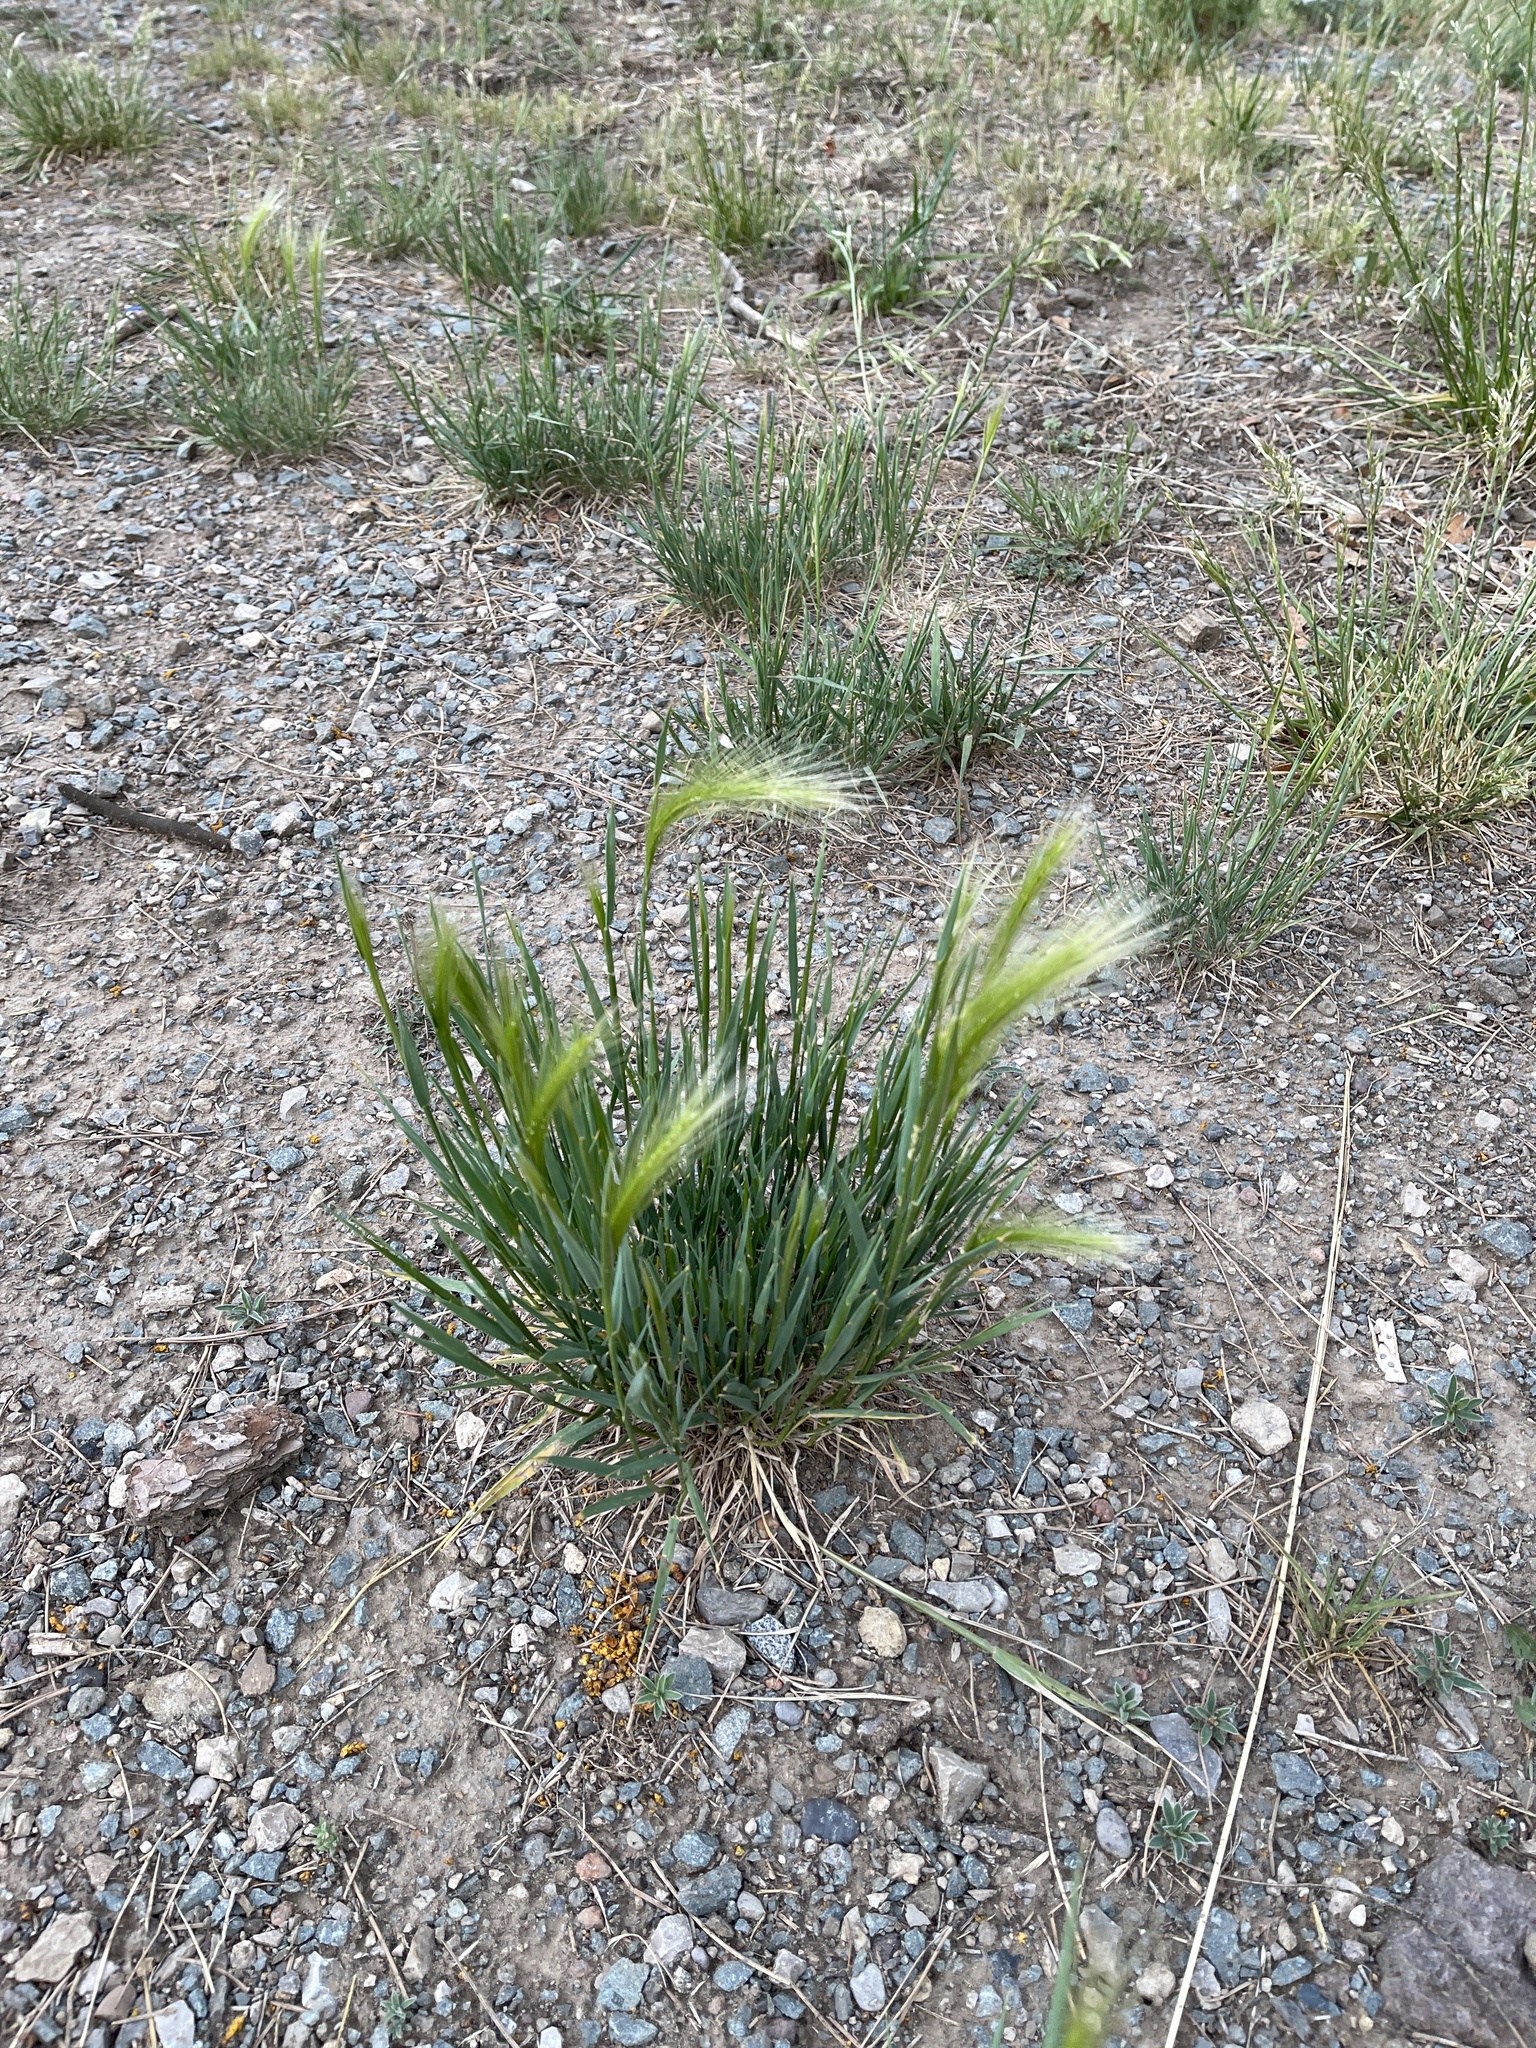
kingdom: Plantae
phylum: Tracheophyta
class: Liliopsida
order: Poales
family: Poaceae
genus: Hordeum
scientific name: Hordeum jubatum
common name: Foxtail barley
